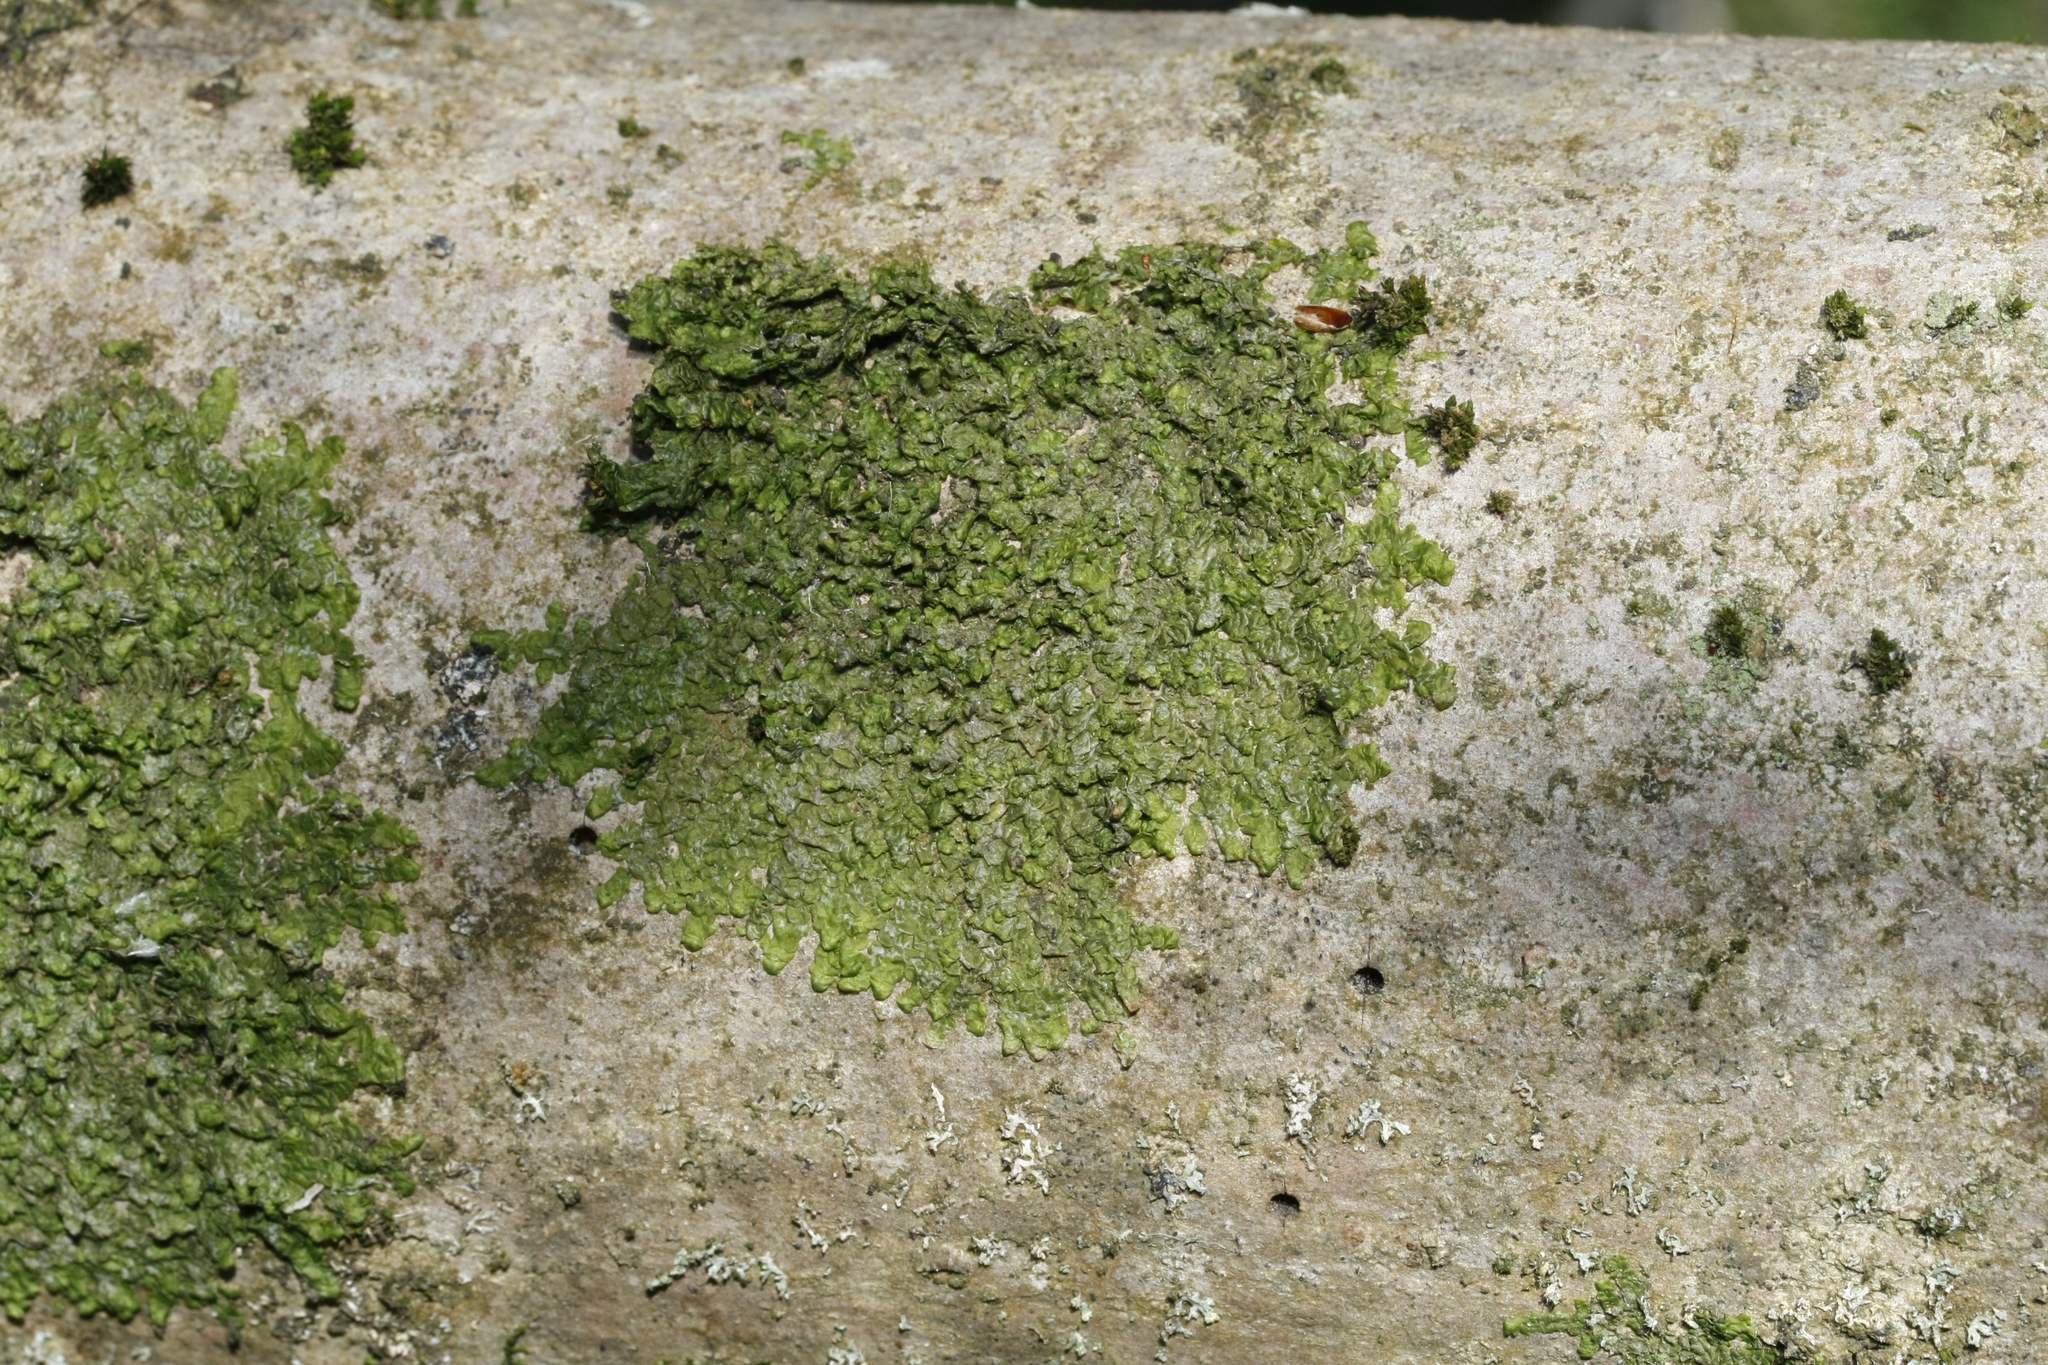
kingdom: Plantae
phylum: Marchantiophyta
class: Jungermanniopsida
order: Porellales
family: Radulaceae
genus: Radula
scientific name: Radula complanata
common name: Flat-leaved scalewort
